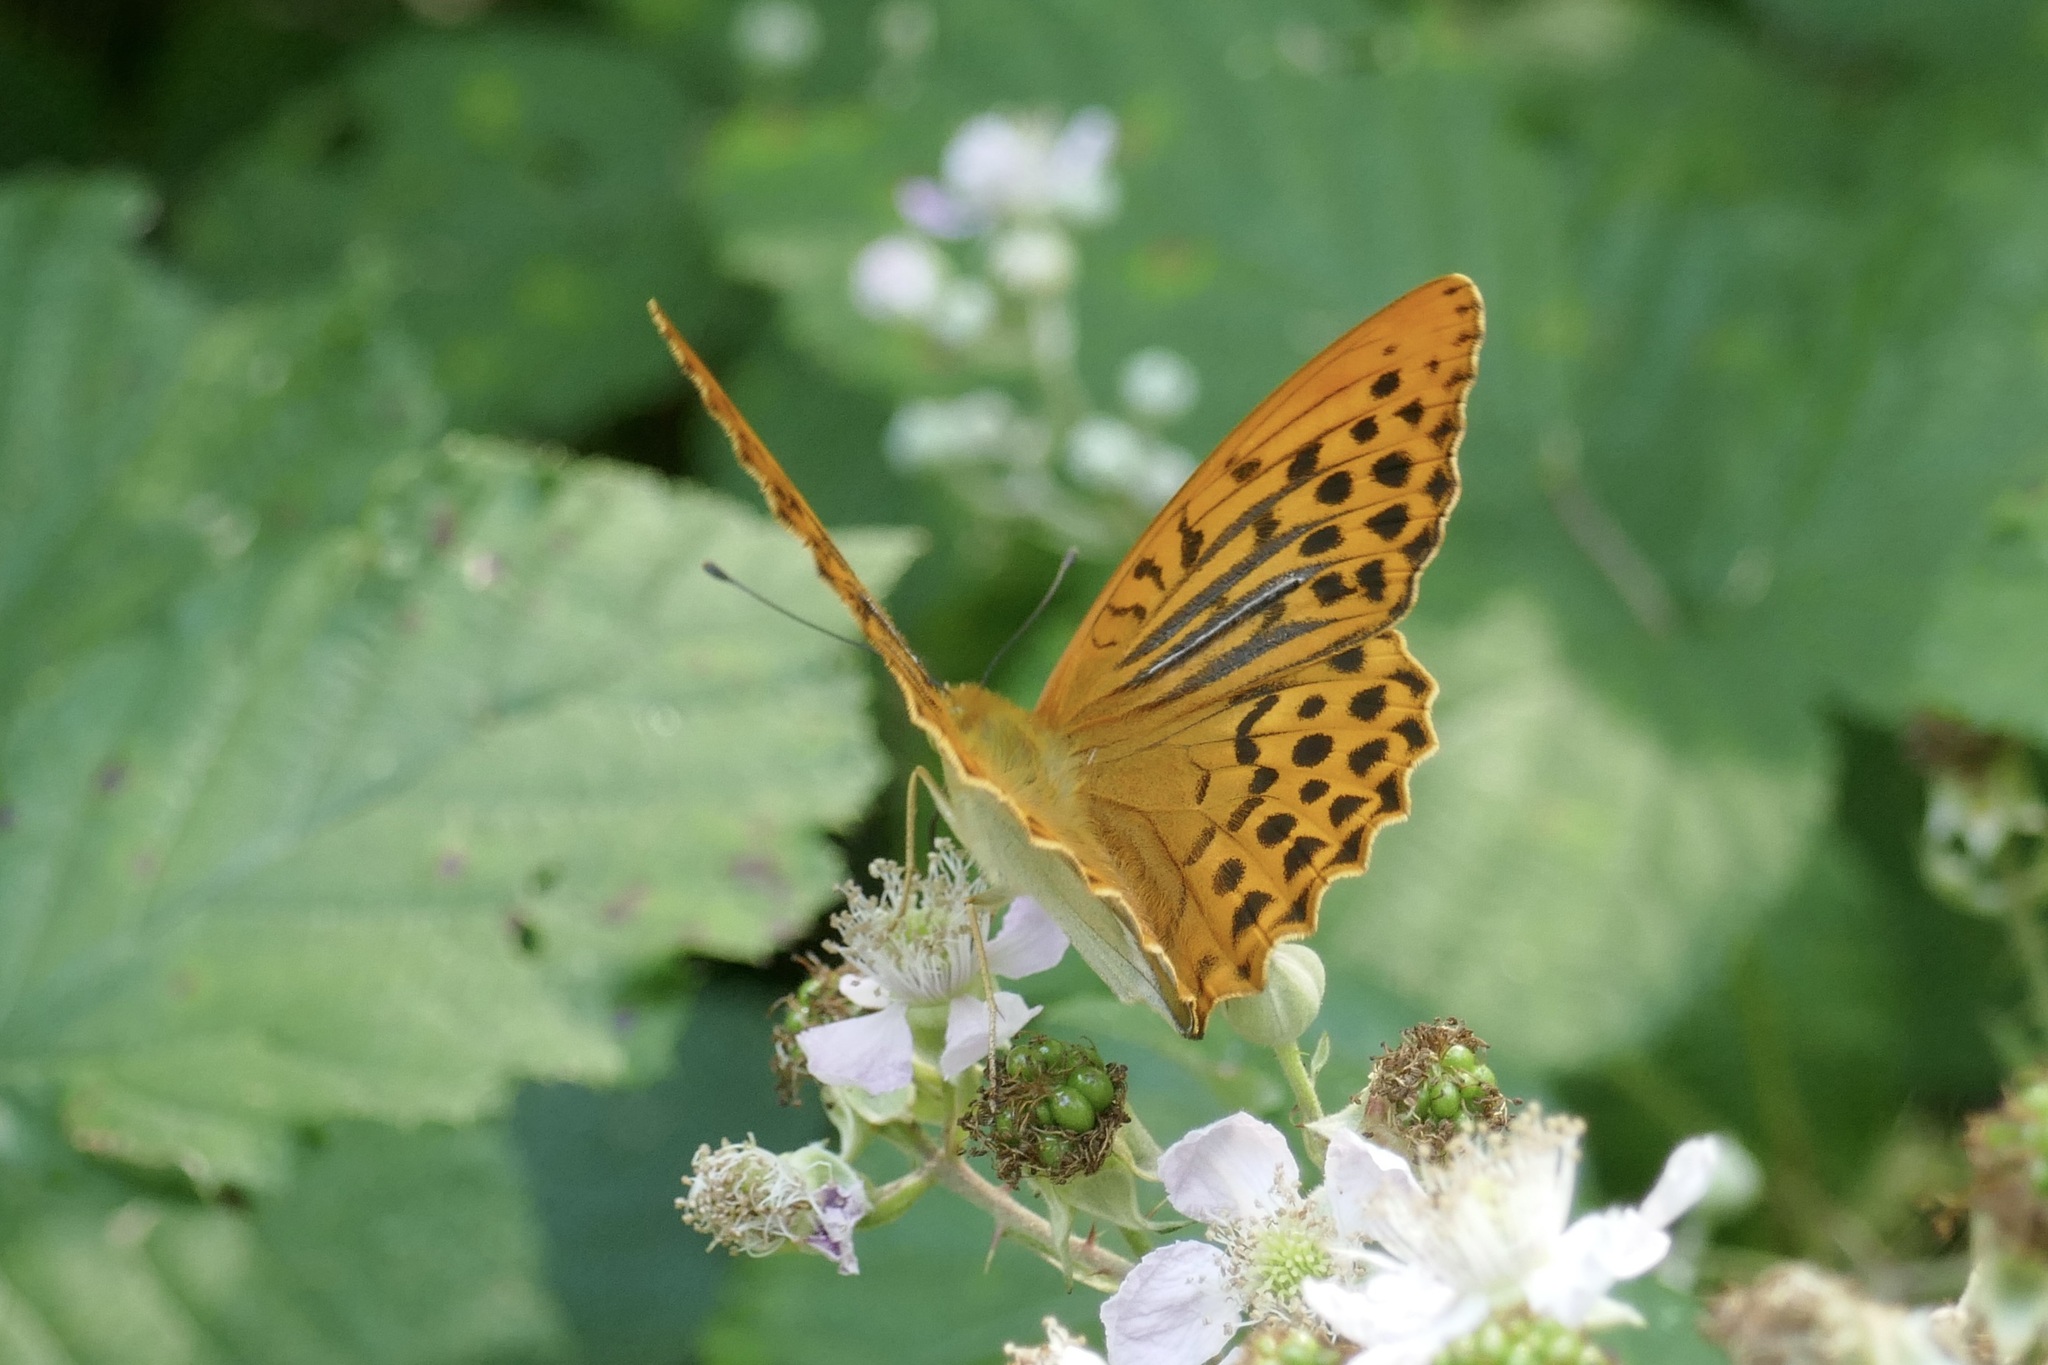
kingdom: Animalia
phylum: Arthropoda
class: Insecta
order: Lepidoptera
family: Nymphalidae
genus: Argynnis
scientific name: Argynnis paphia
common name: Silver-washed fritillary
